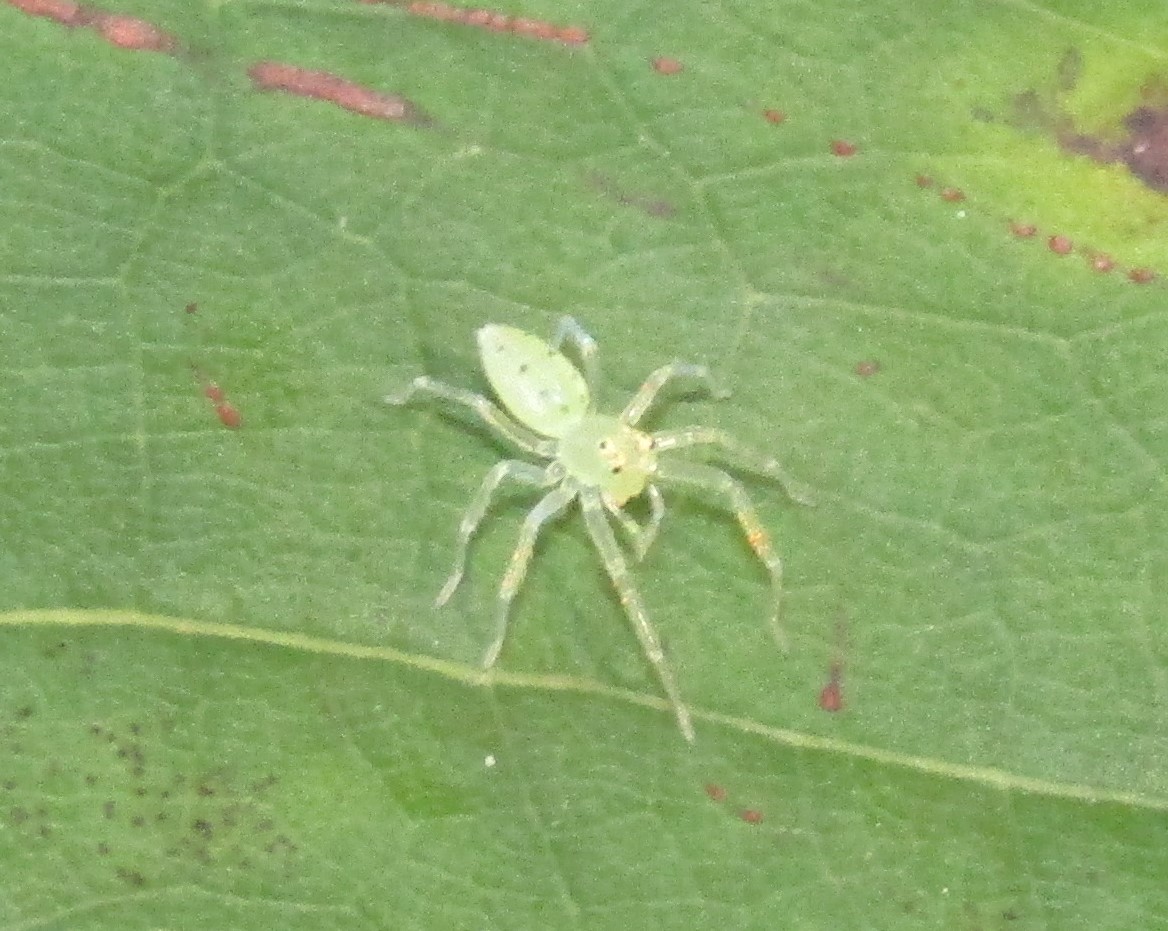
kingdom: Animalia
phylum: Arthropoda
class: Arachnida
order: Araneae
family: Salticidae
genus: Lyssomanes
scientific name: Lyssomanes viridis
